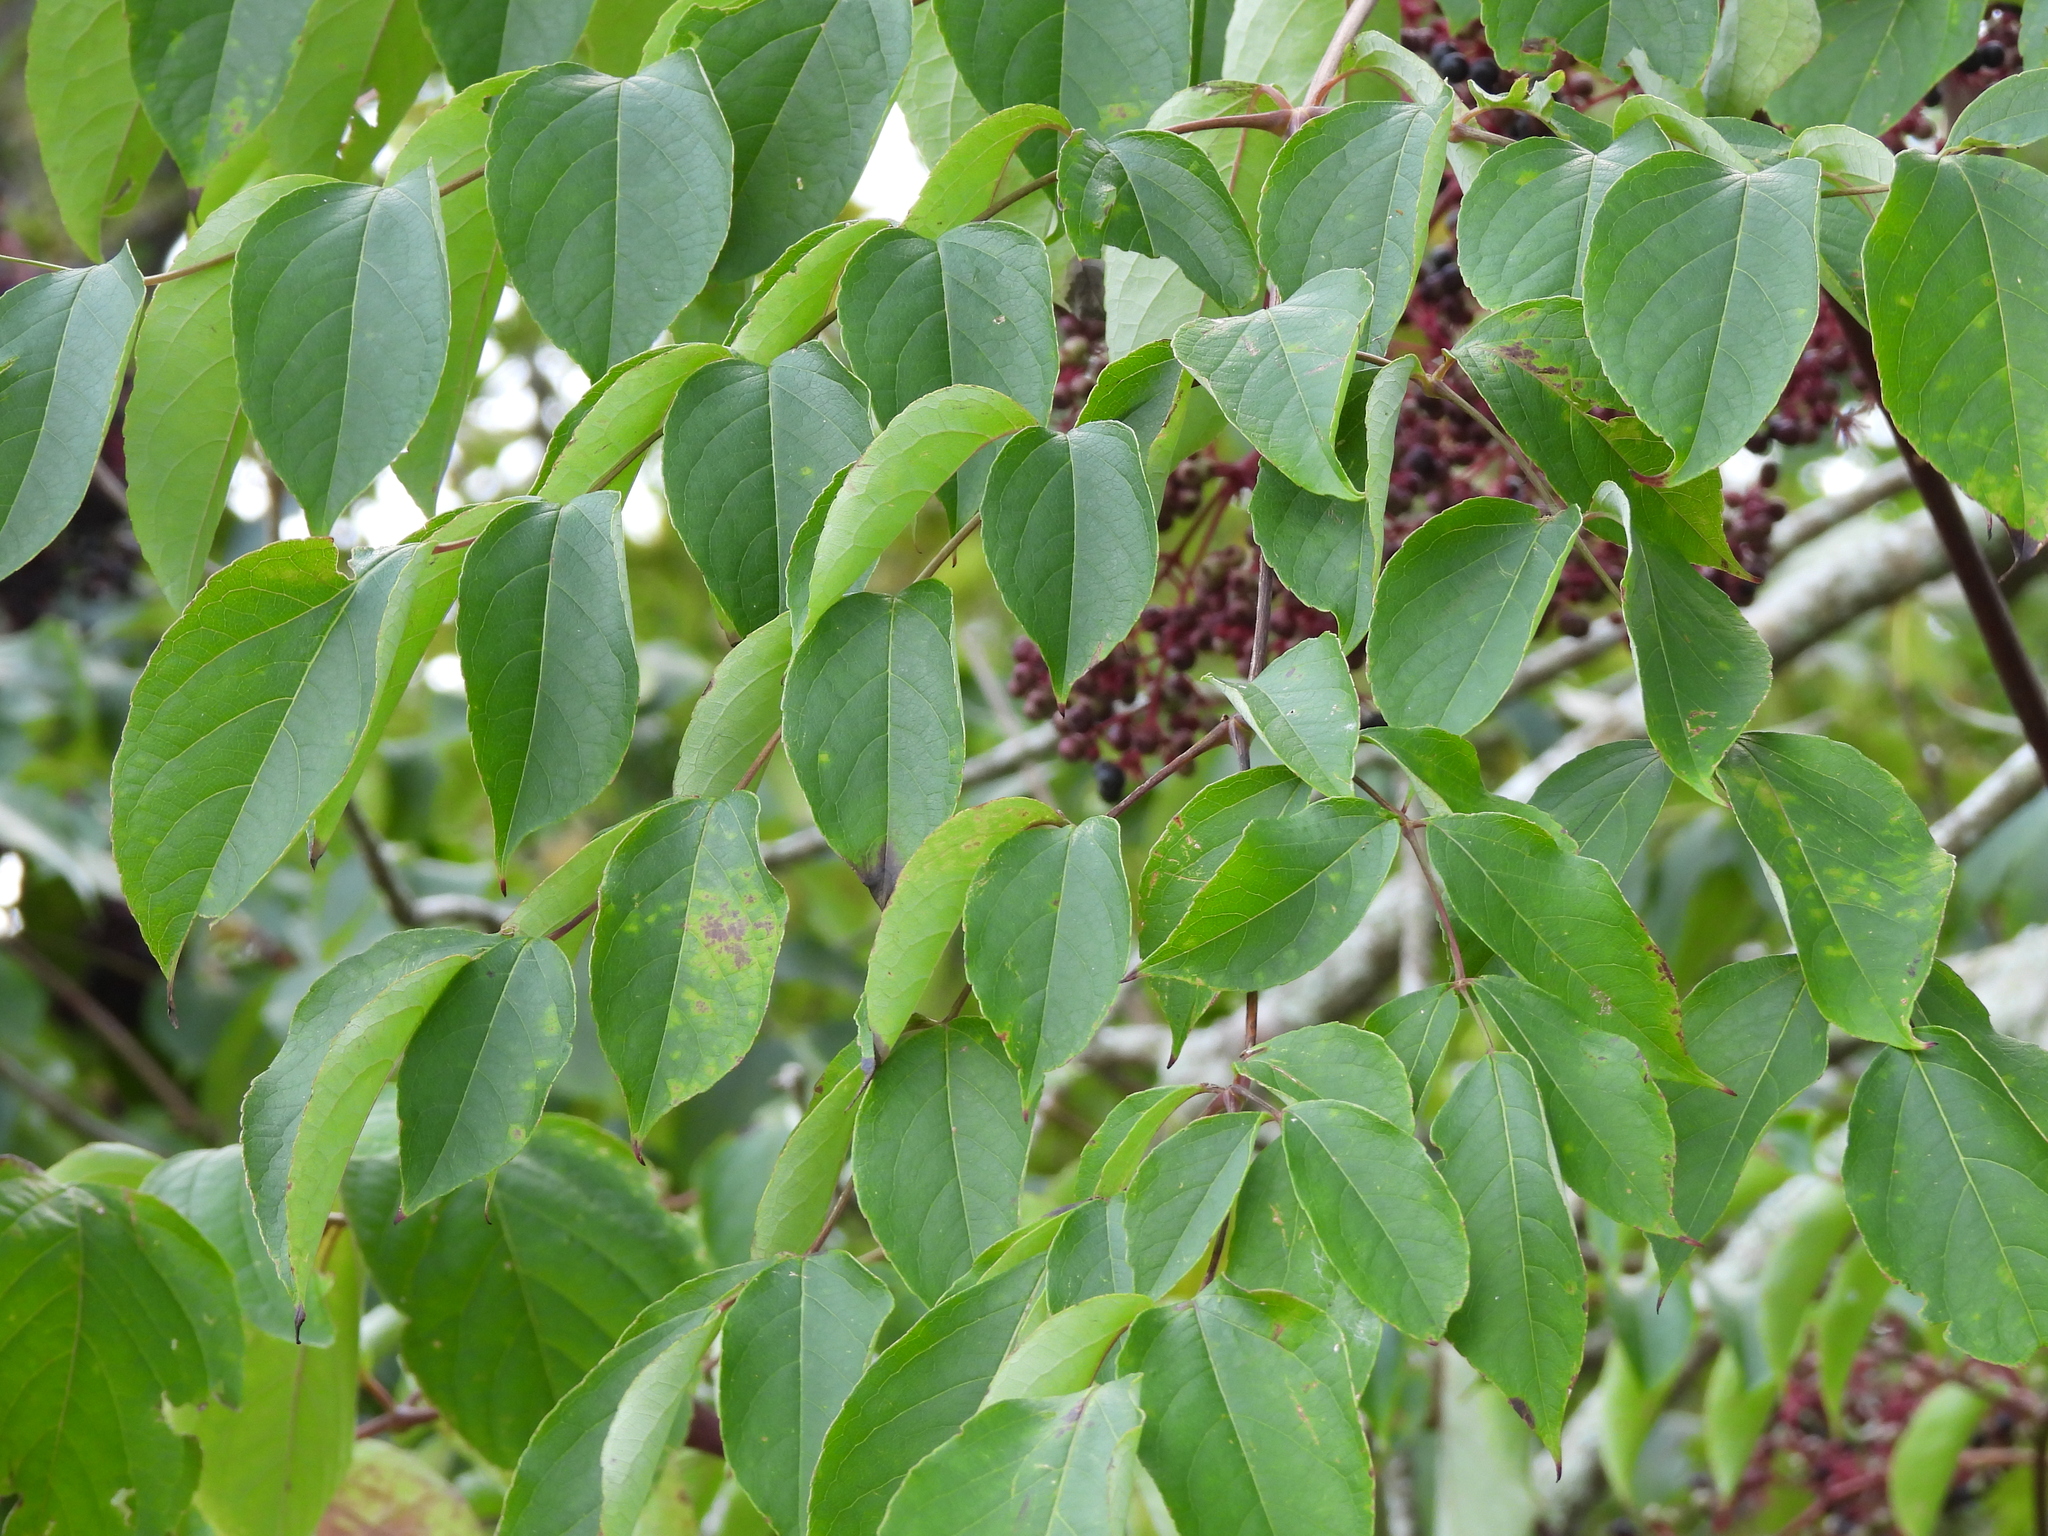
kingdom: Plantae
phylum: Tracheophyta
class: Magnoliopsida
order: Apiales
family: Araliaceae
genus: Aralia
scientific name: Aralia spinosa
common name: Hercules'-club
